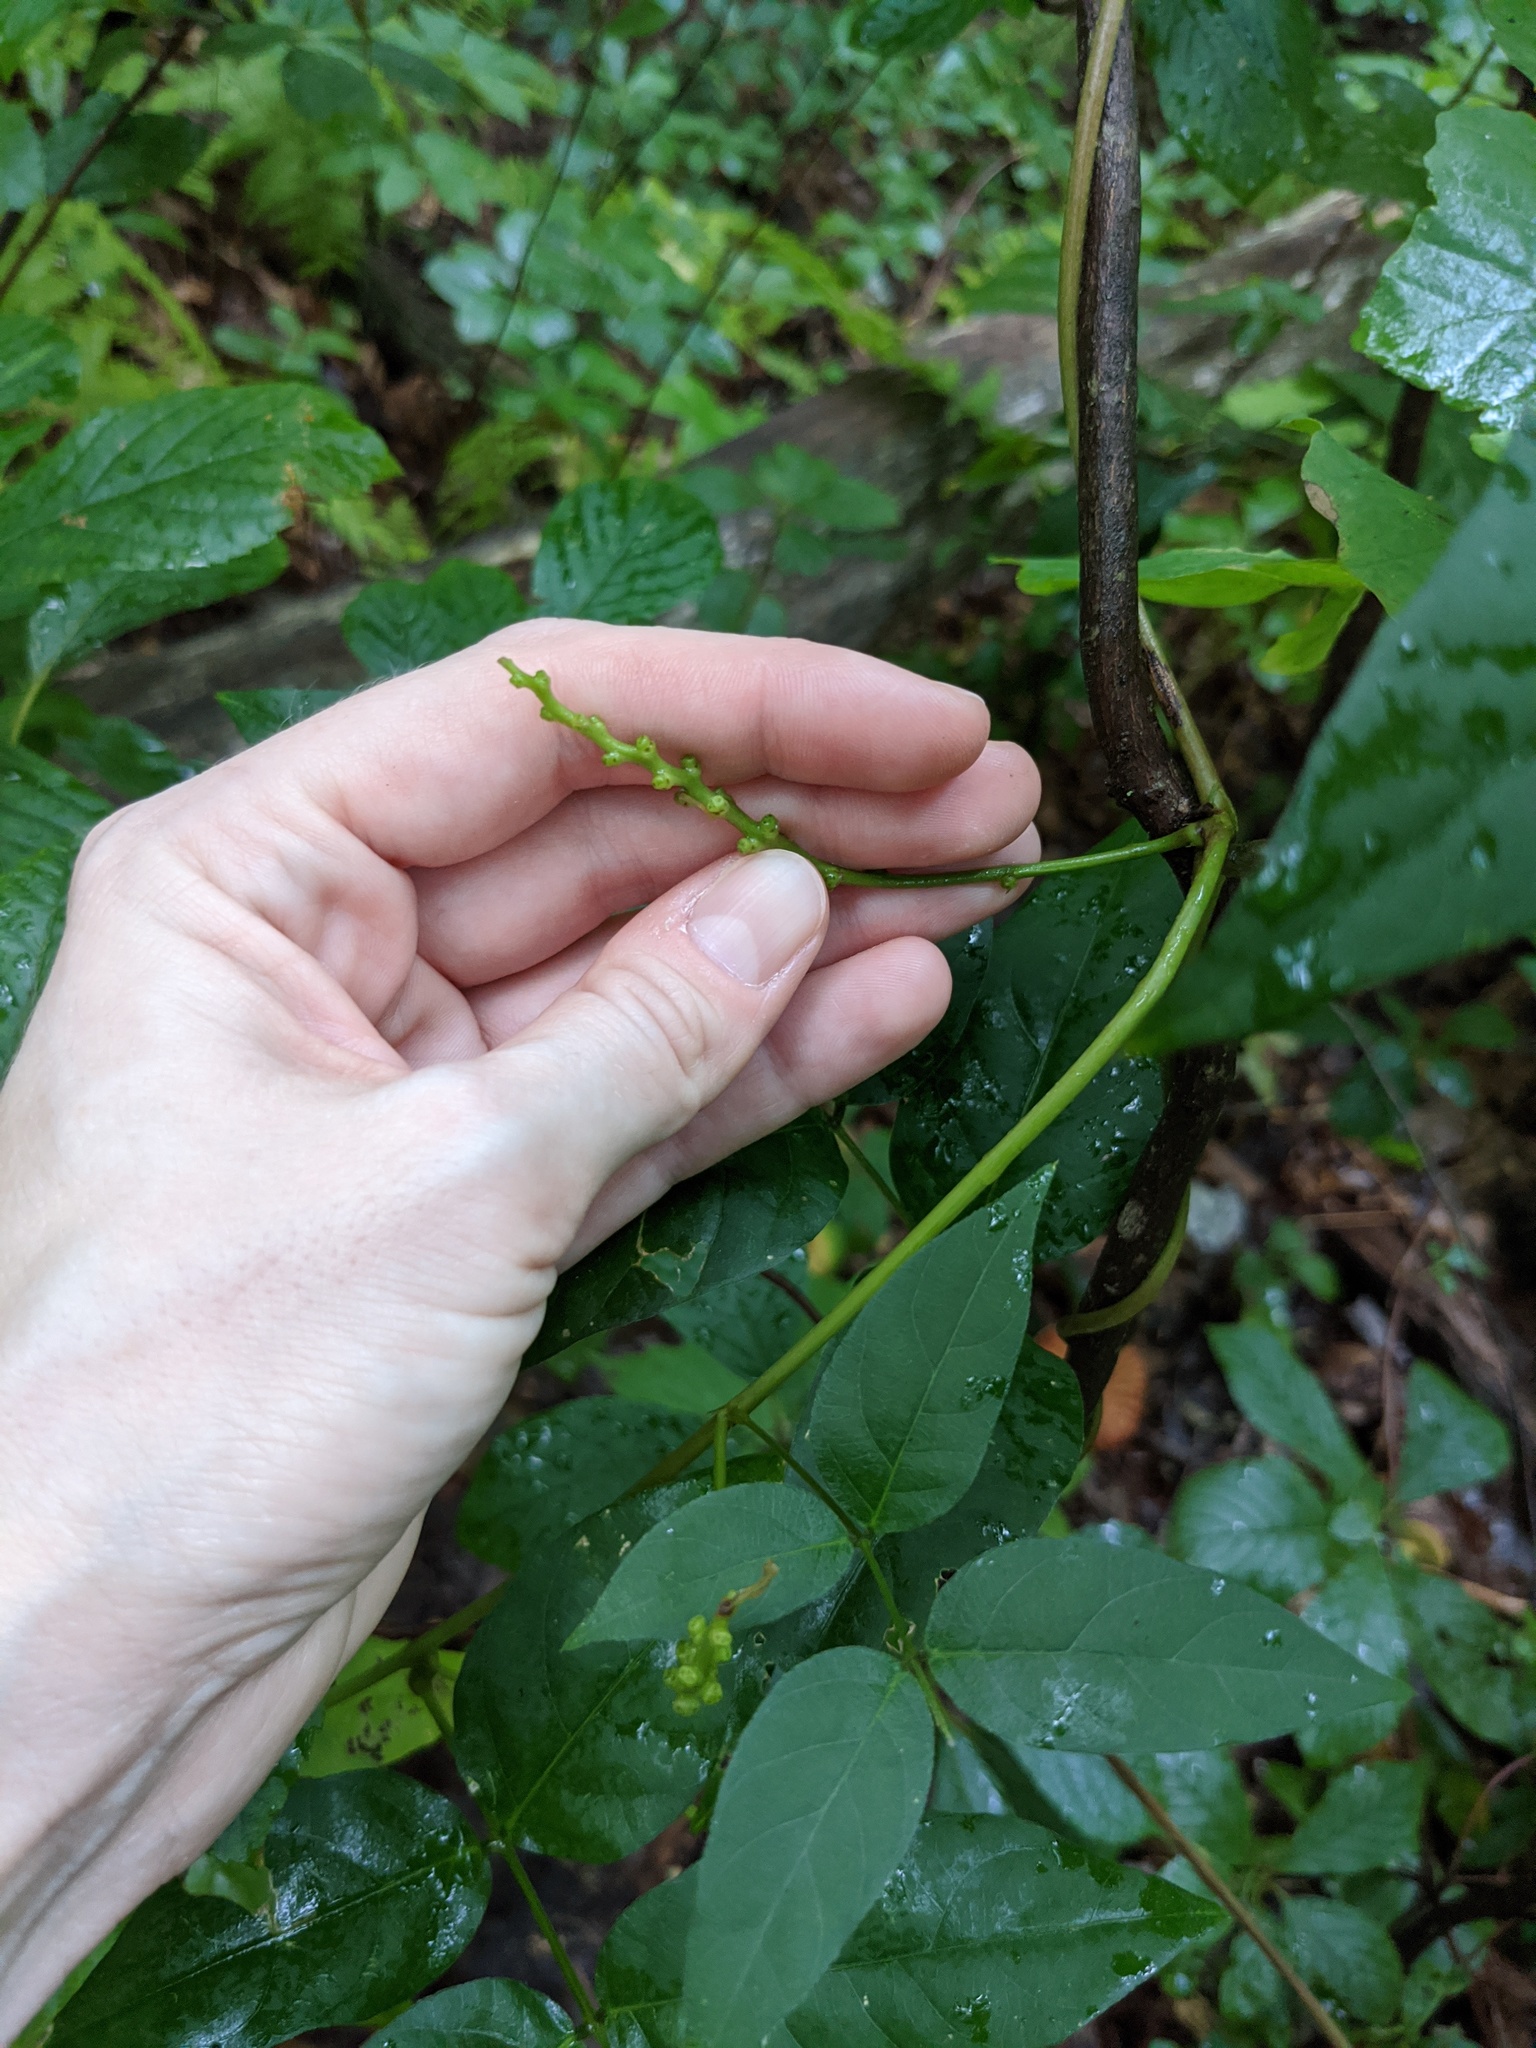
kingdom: Plantae
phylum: Tracheophyta
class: Magnoliopsida
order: Fabales
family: Fabaceae
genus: Apios
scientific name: Apios americana
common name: American potato-bean
